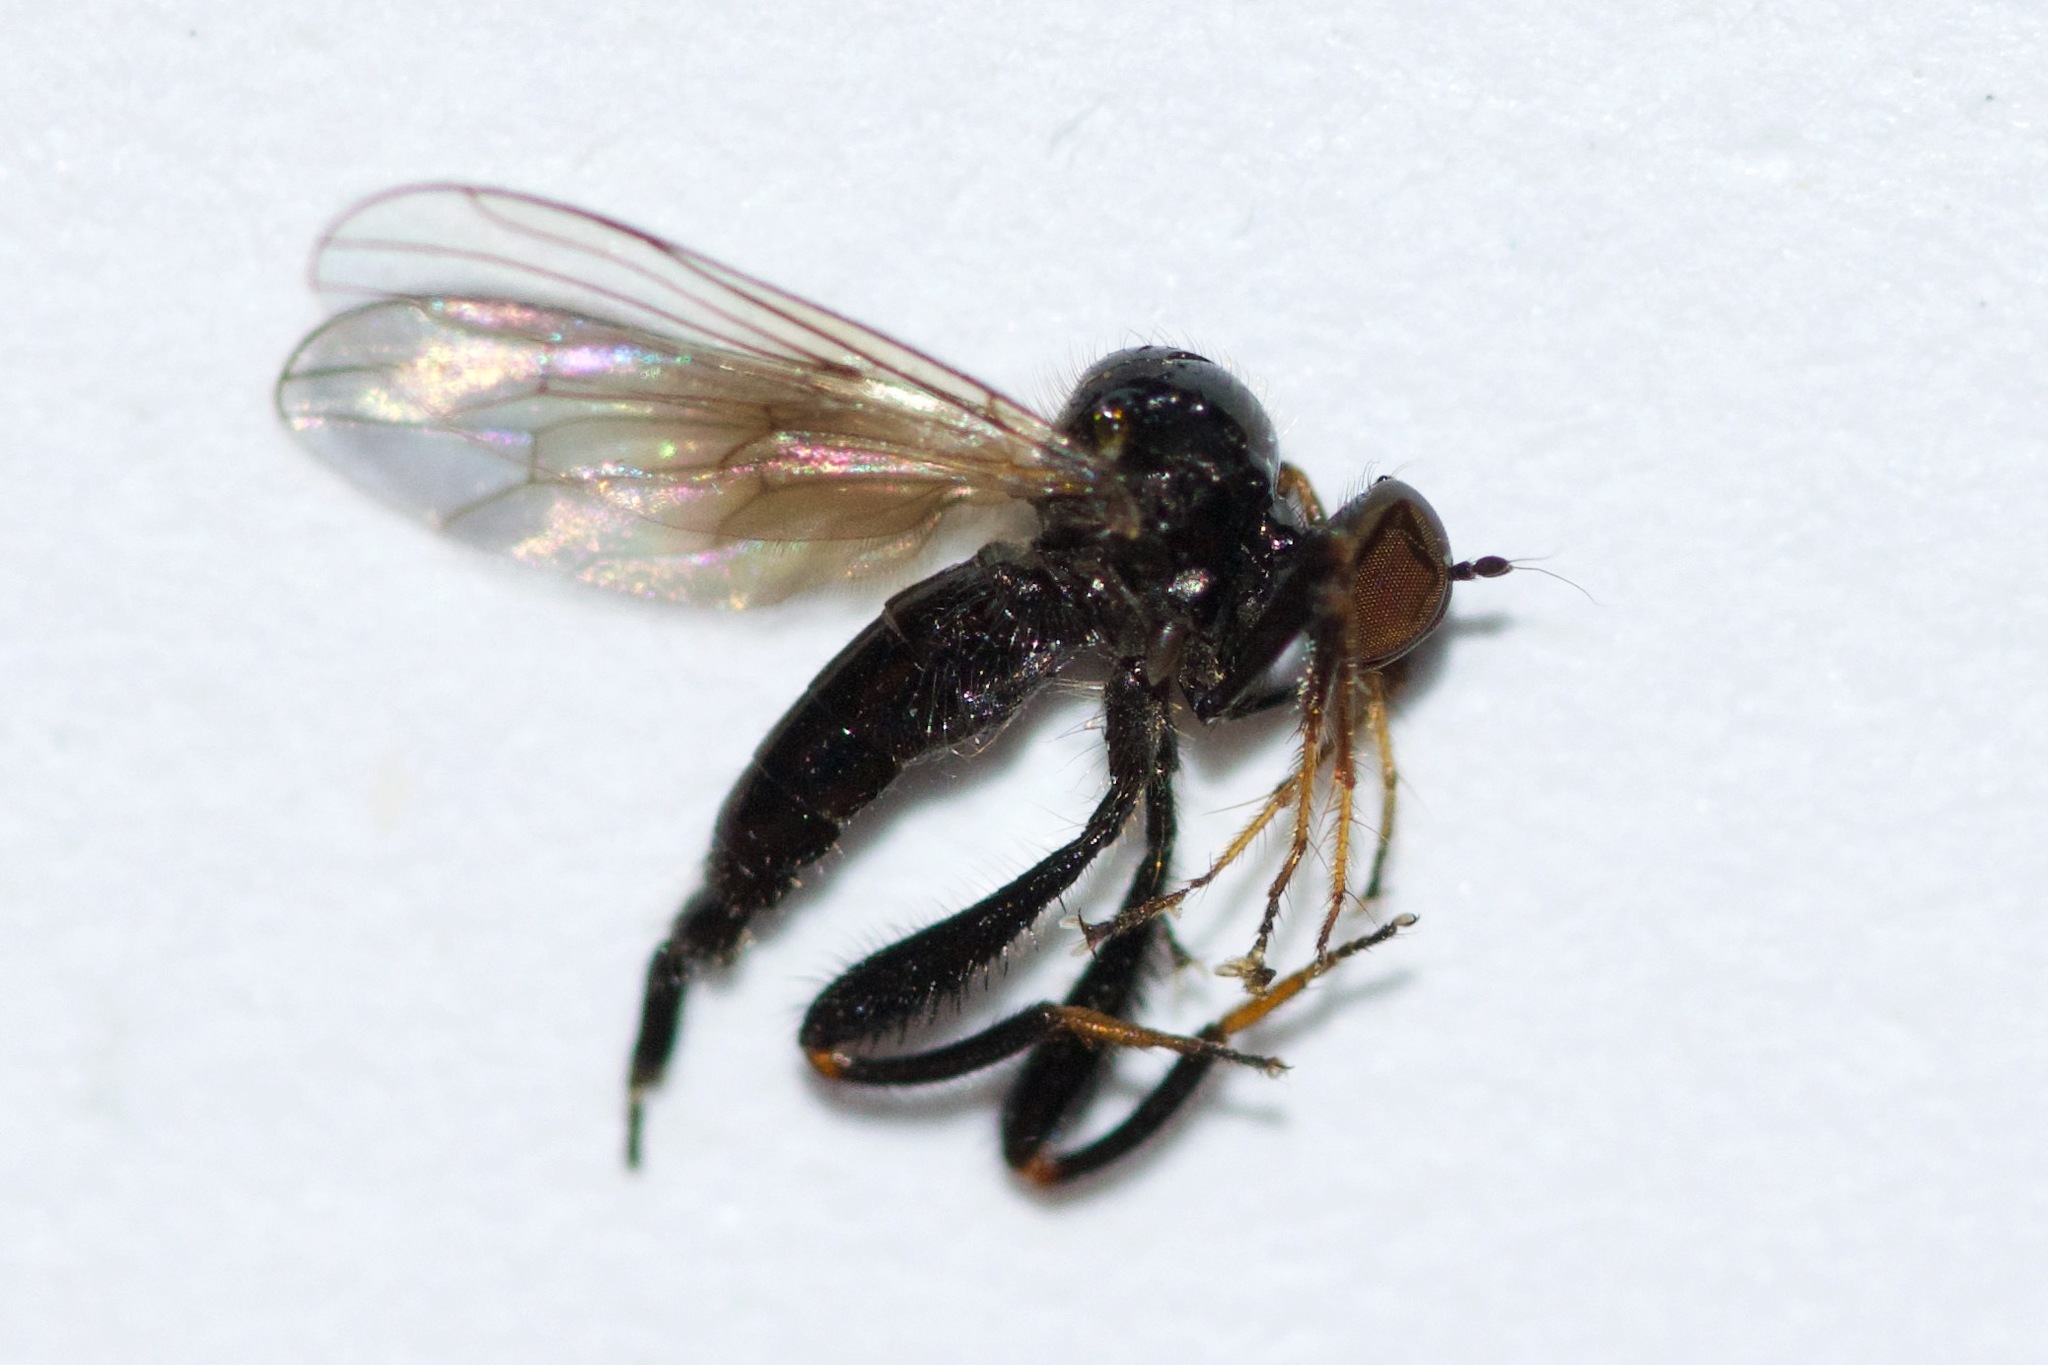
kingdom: Animalia
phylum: Arthropoda
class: Insecta
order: Diptera
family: Hybotidae
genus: Euhybus
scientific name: Euhybus purpureus
